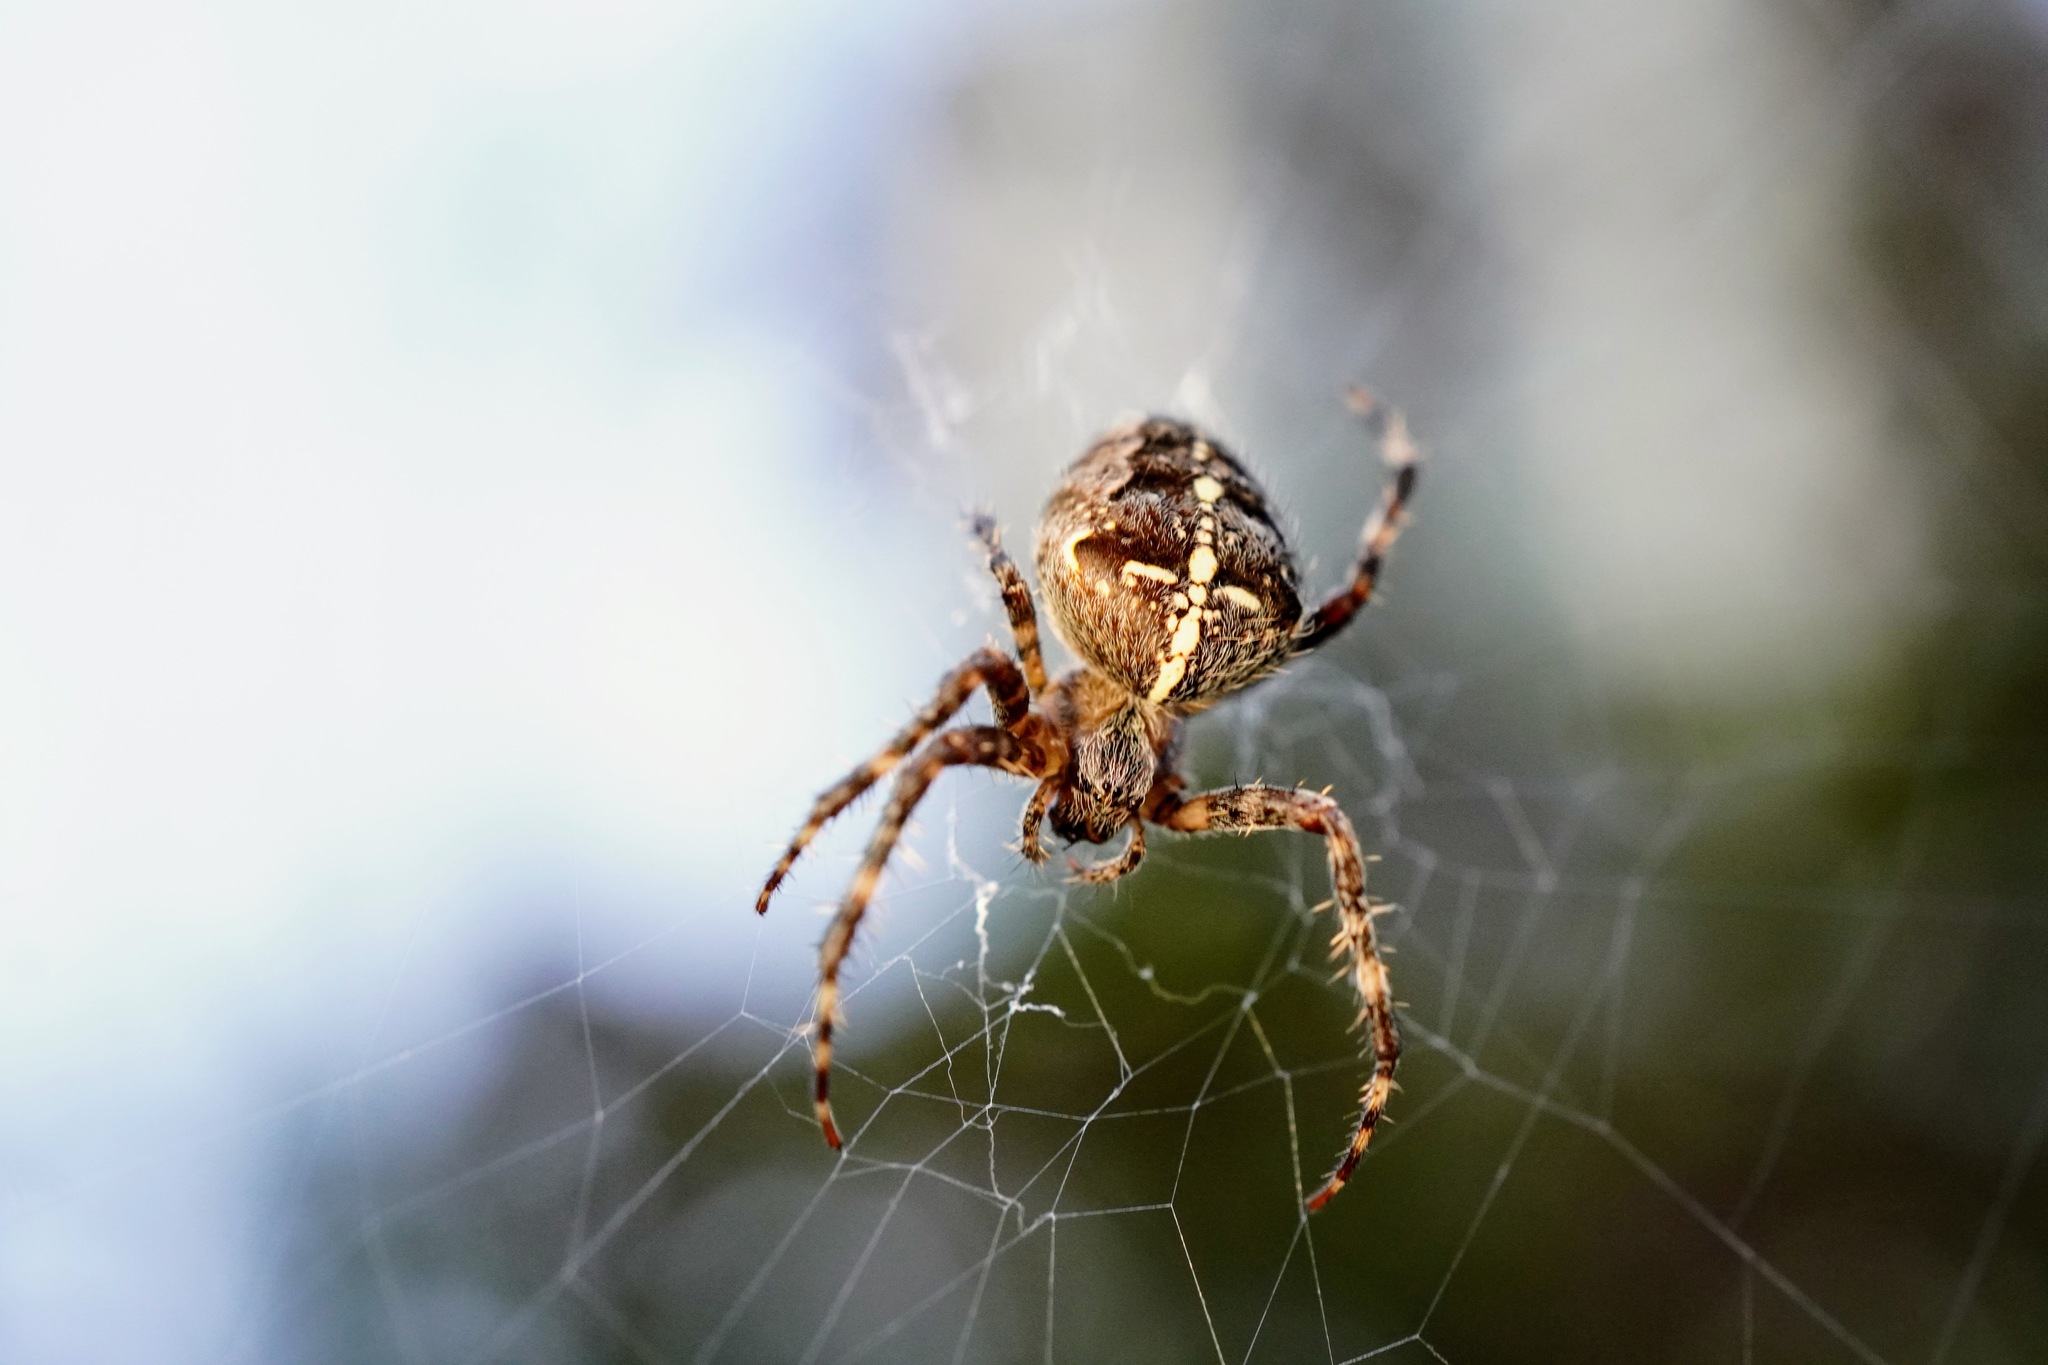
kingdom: Animalia
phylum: Arthropoda
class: Arachnida
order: Araneae
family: Araneidae
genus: Araneus
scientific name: Araneus diadematus
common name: Cross orbweaver
